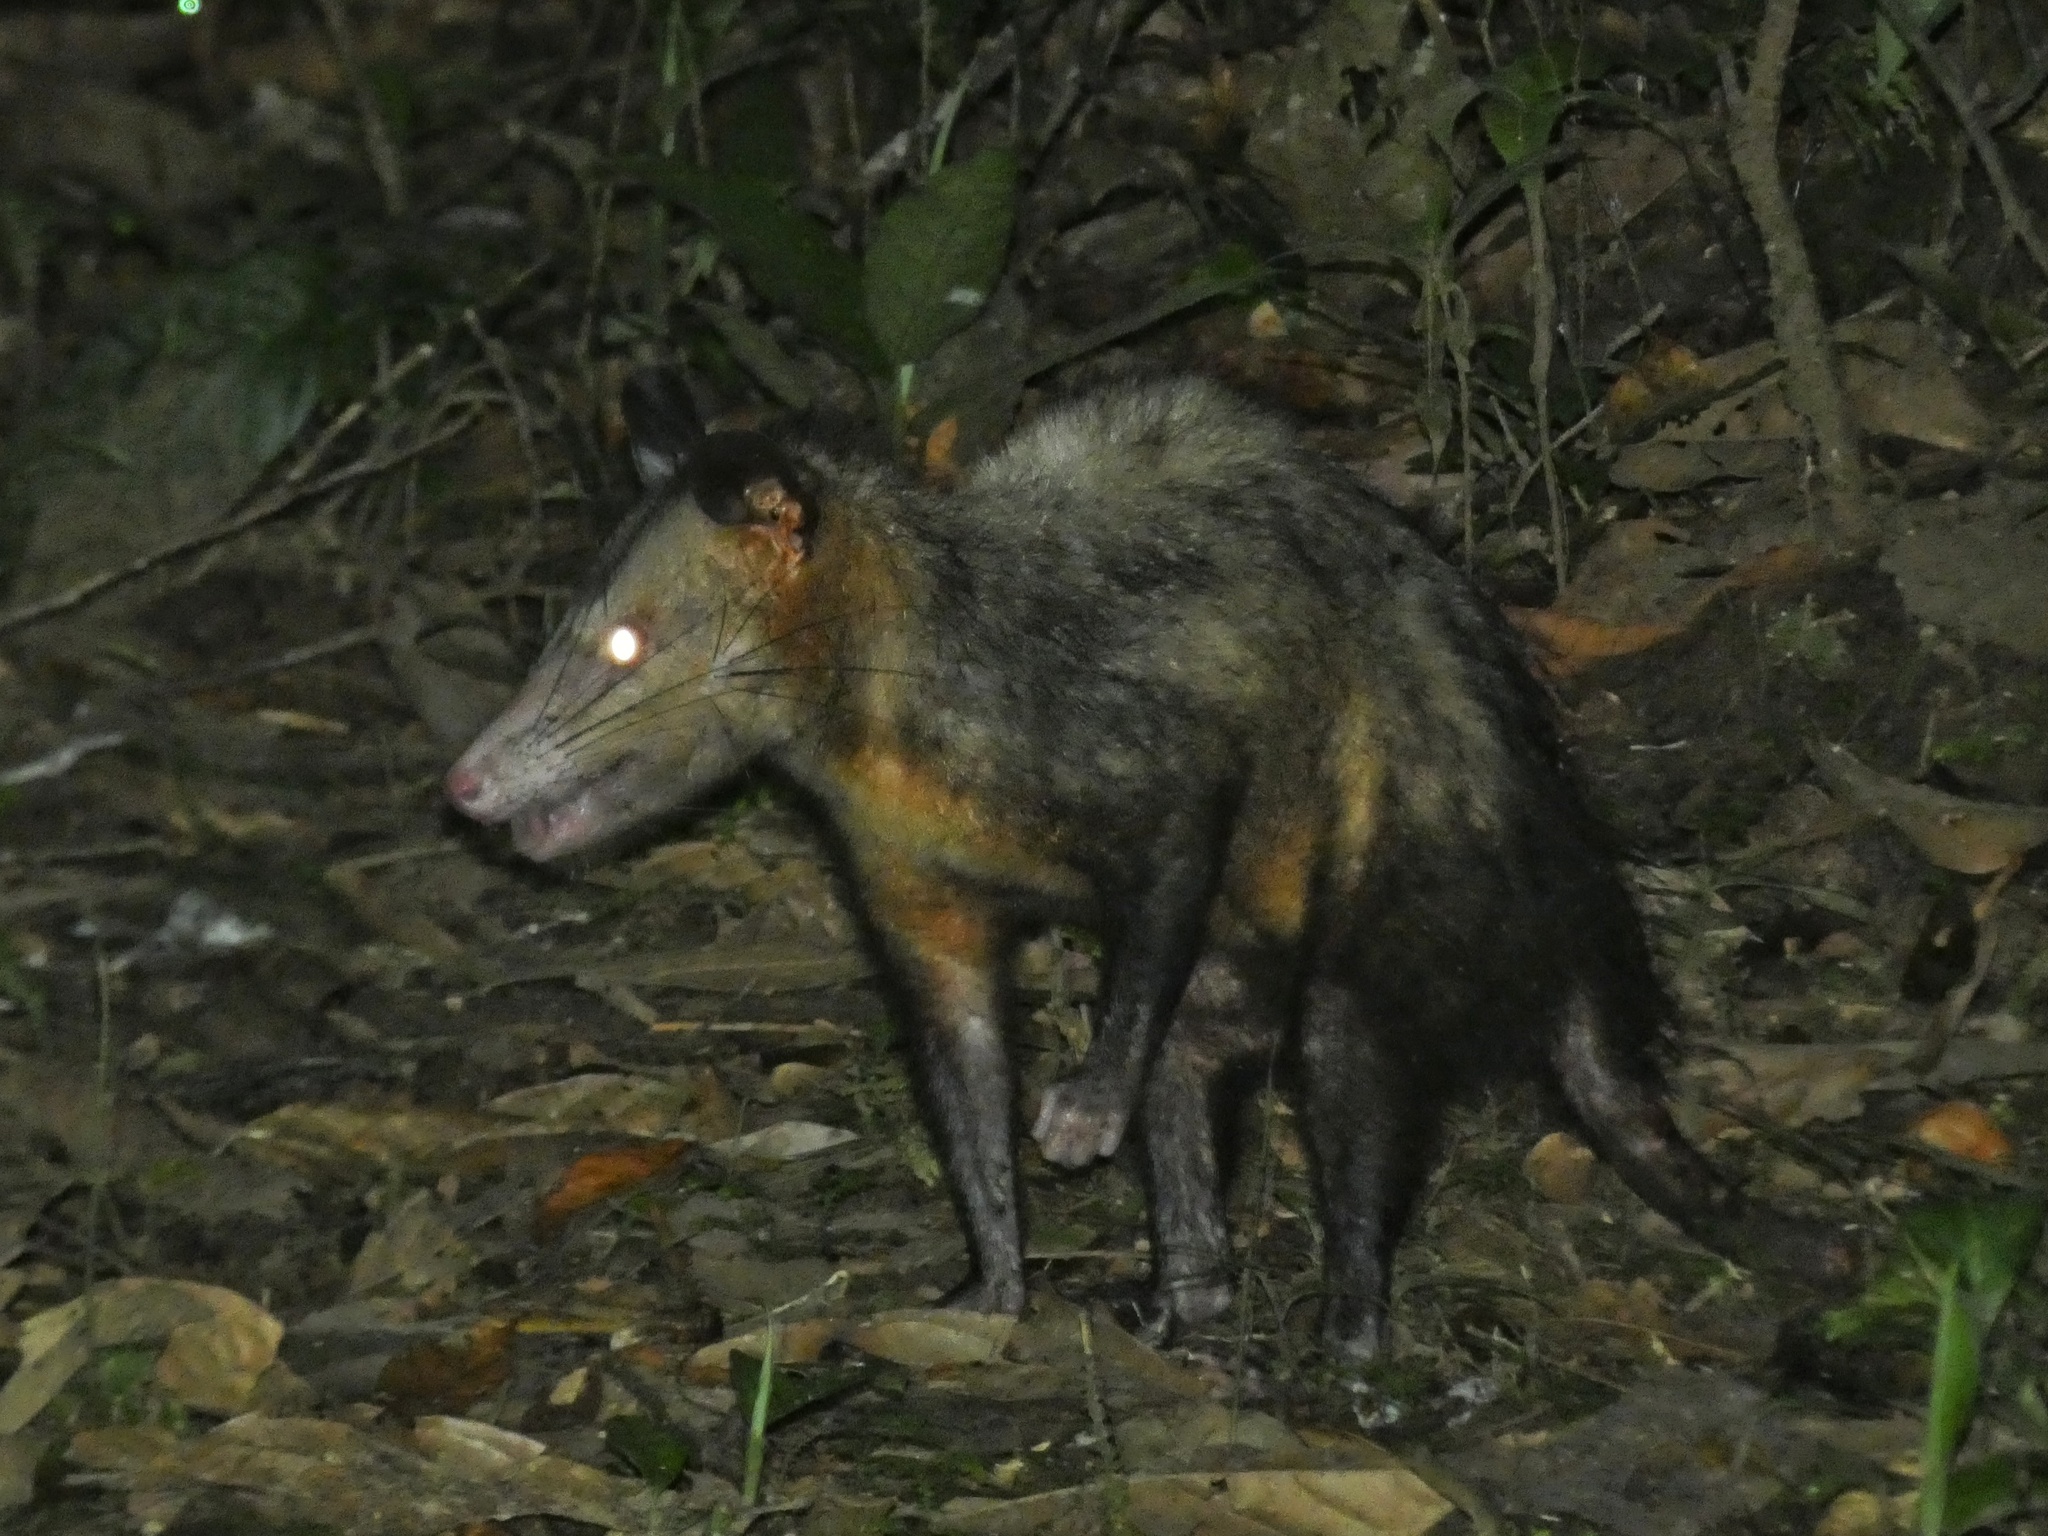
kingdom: Animalia
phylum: Chordata
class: Mammalia
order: Didelphimorphia
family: Didelphidae
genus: Didelphis
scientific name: Didelphis marsupialis
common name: Common opossum
